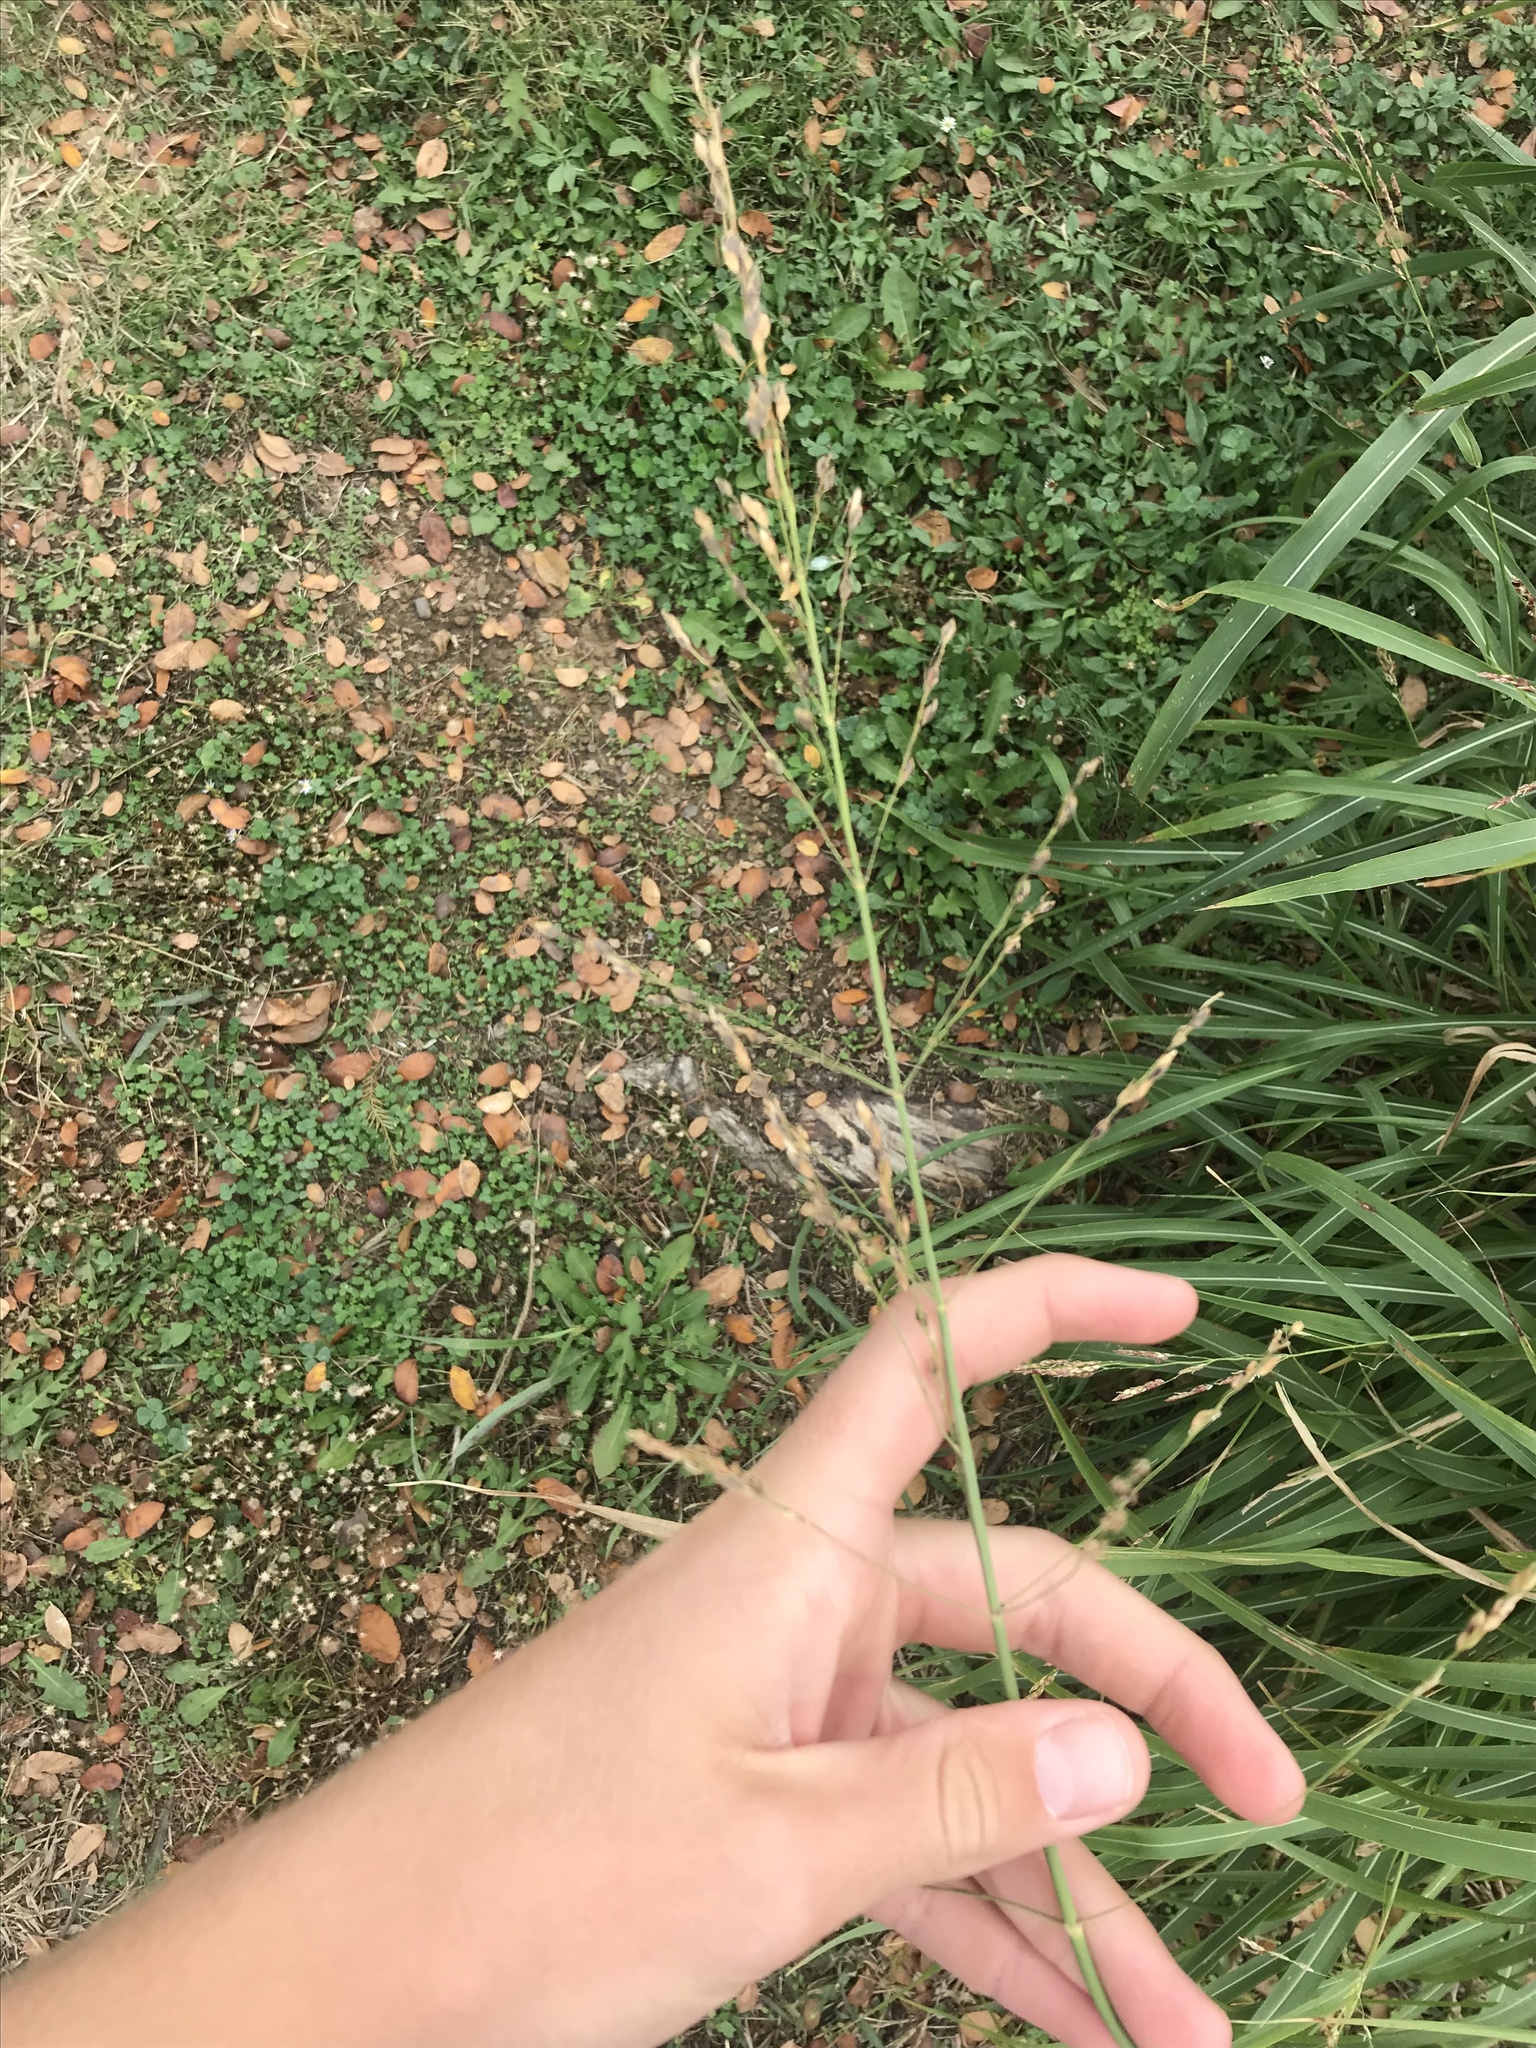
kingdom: Plantae
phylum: Tracheophyta
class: Liliopsida
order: Poales
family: Poaceae
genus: Sorghum
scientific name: Sorghum halepense
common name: Johnson-grass
